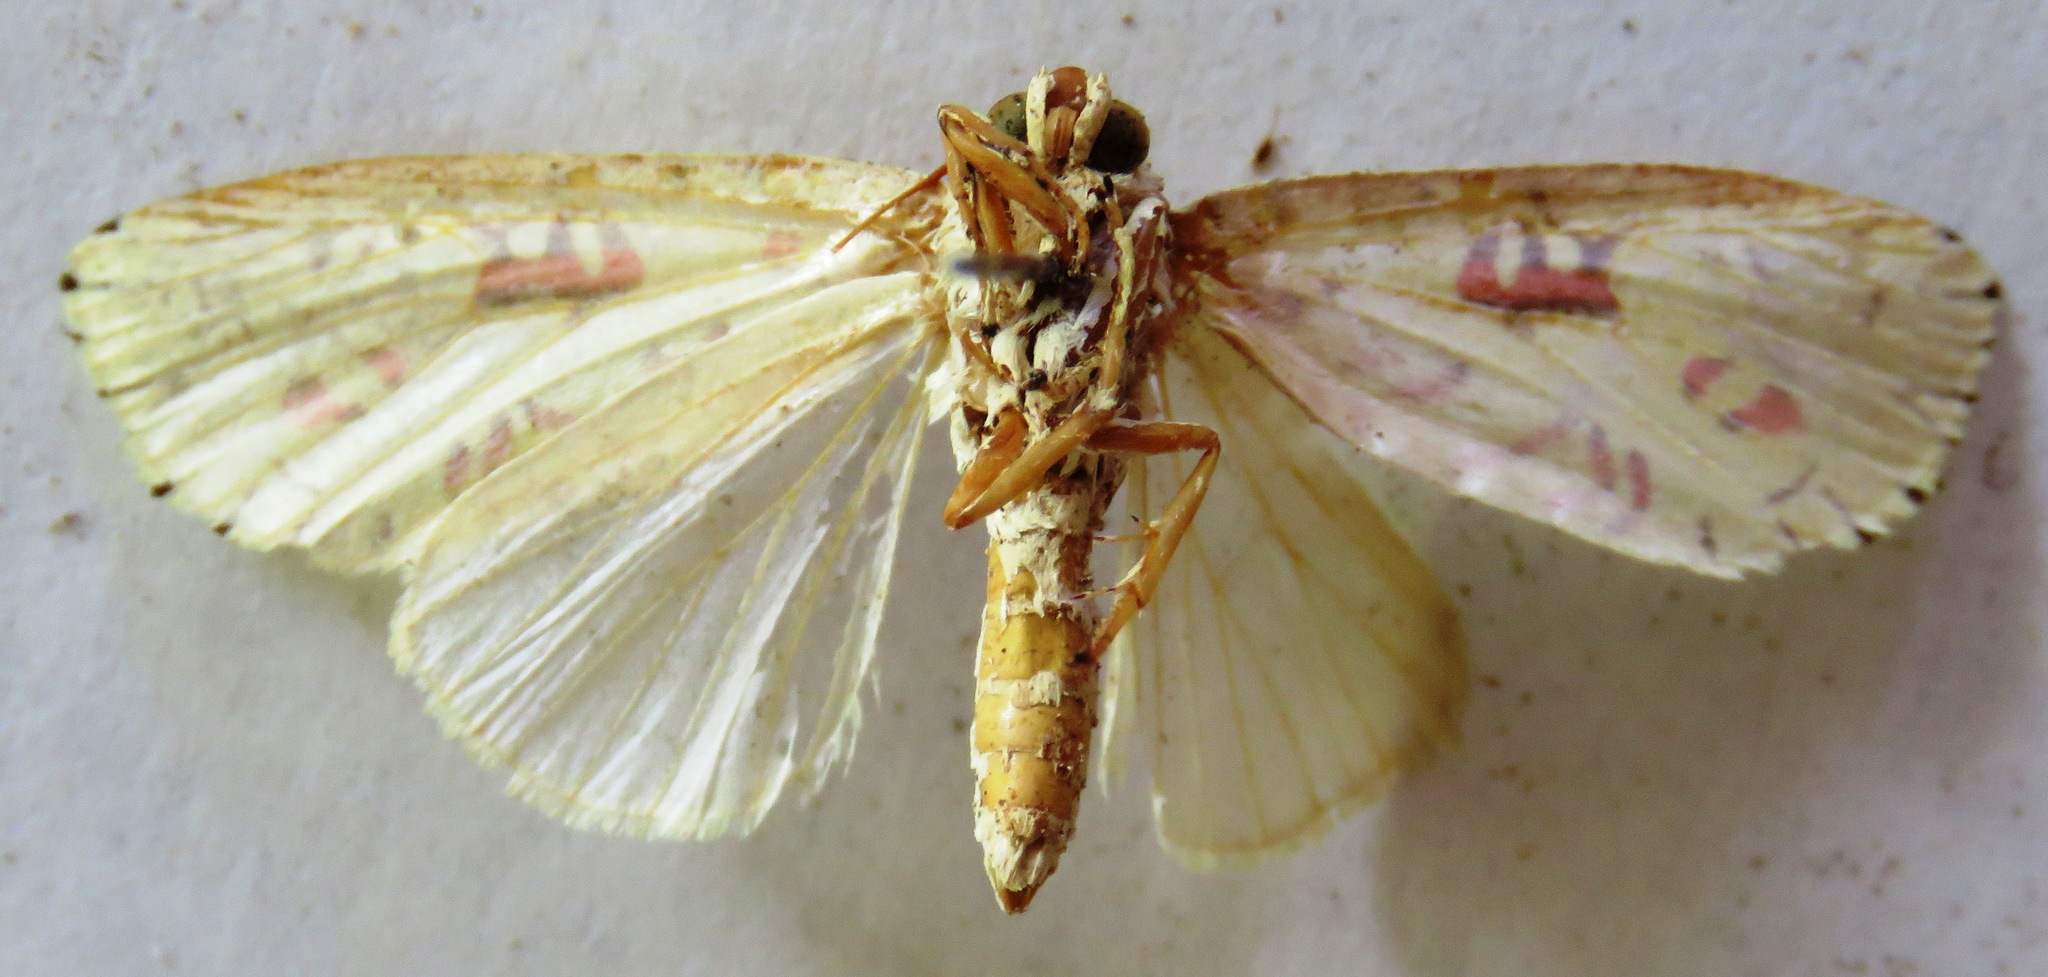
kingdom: Animalia
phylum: Arthropoda
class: Insecta
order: Lepidoptera
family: Noctuidae
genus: Mazuca
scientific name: Mazuca dulcis
